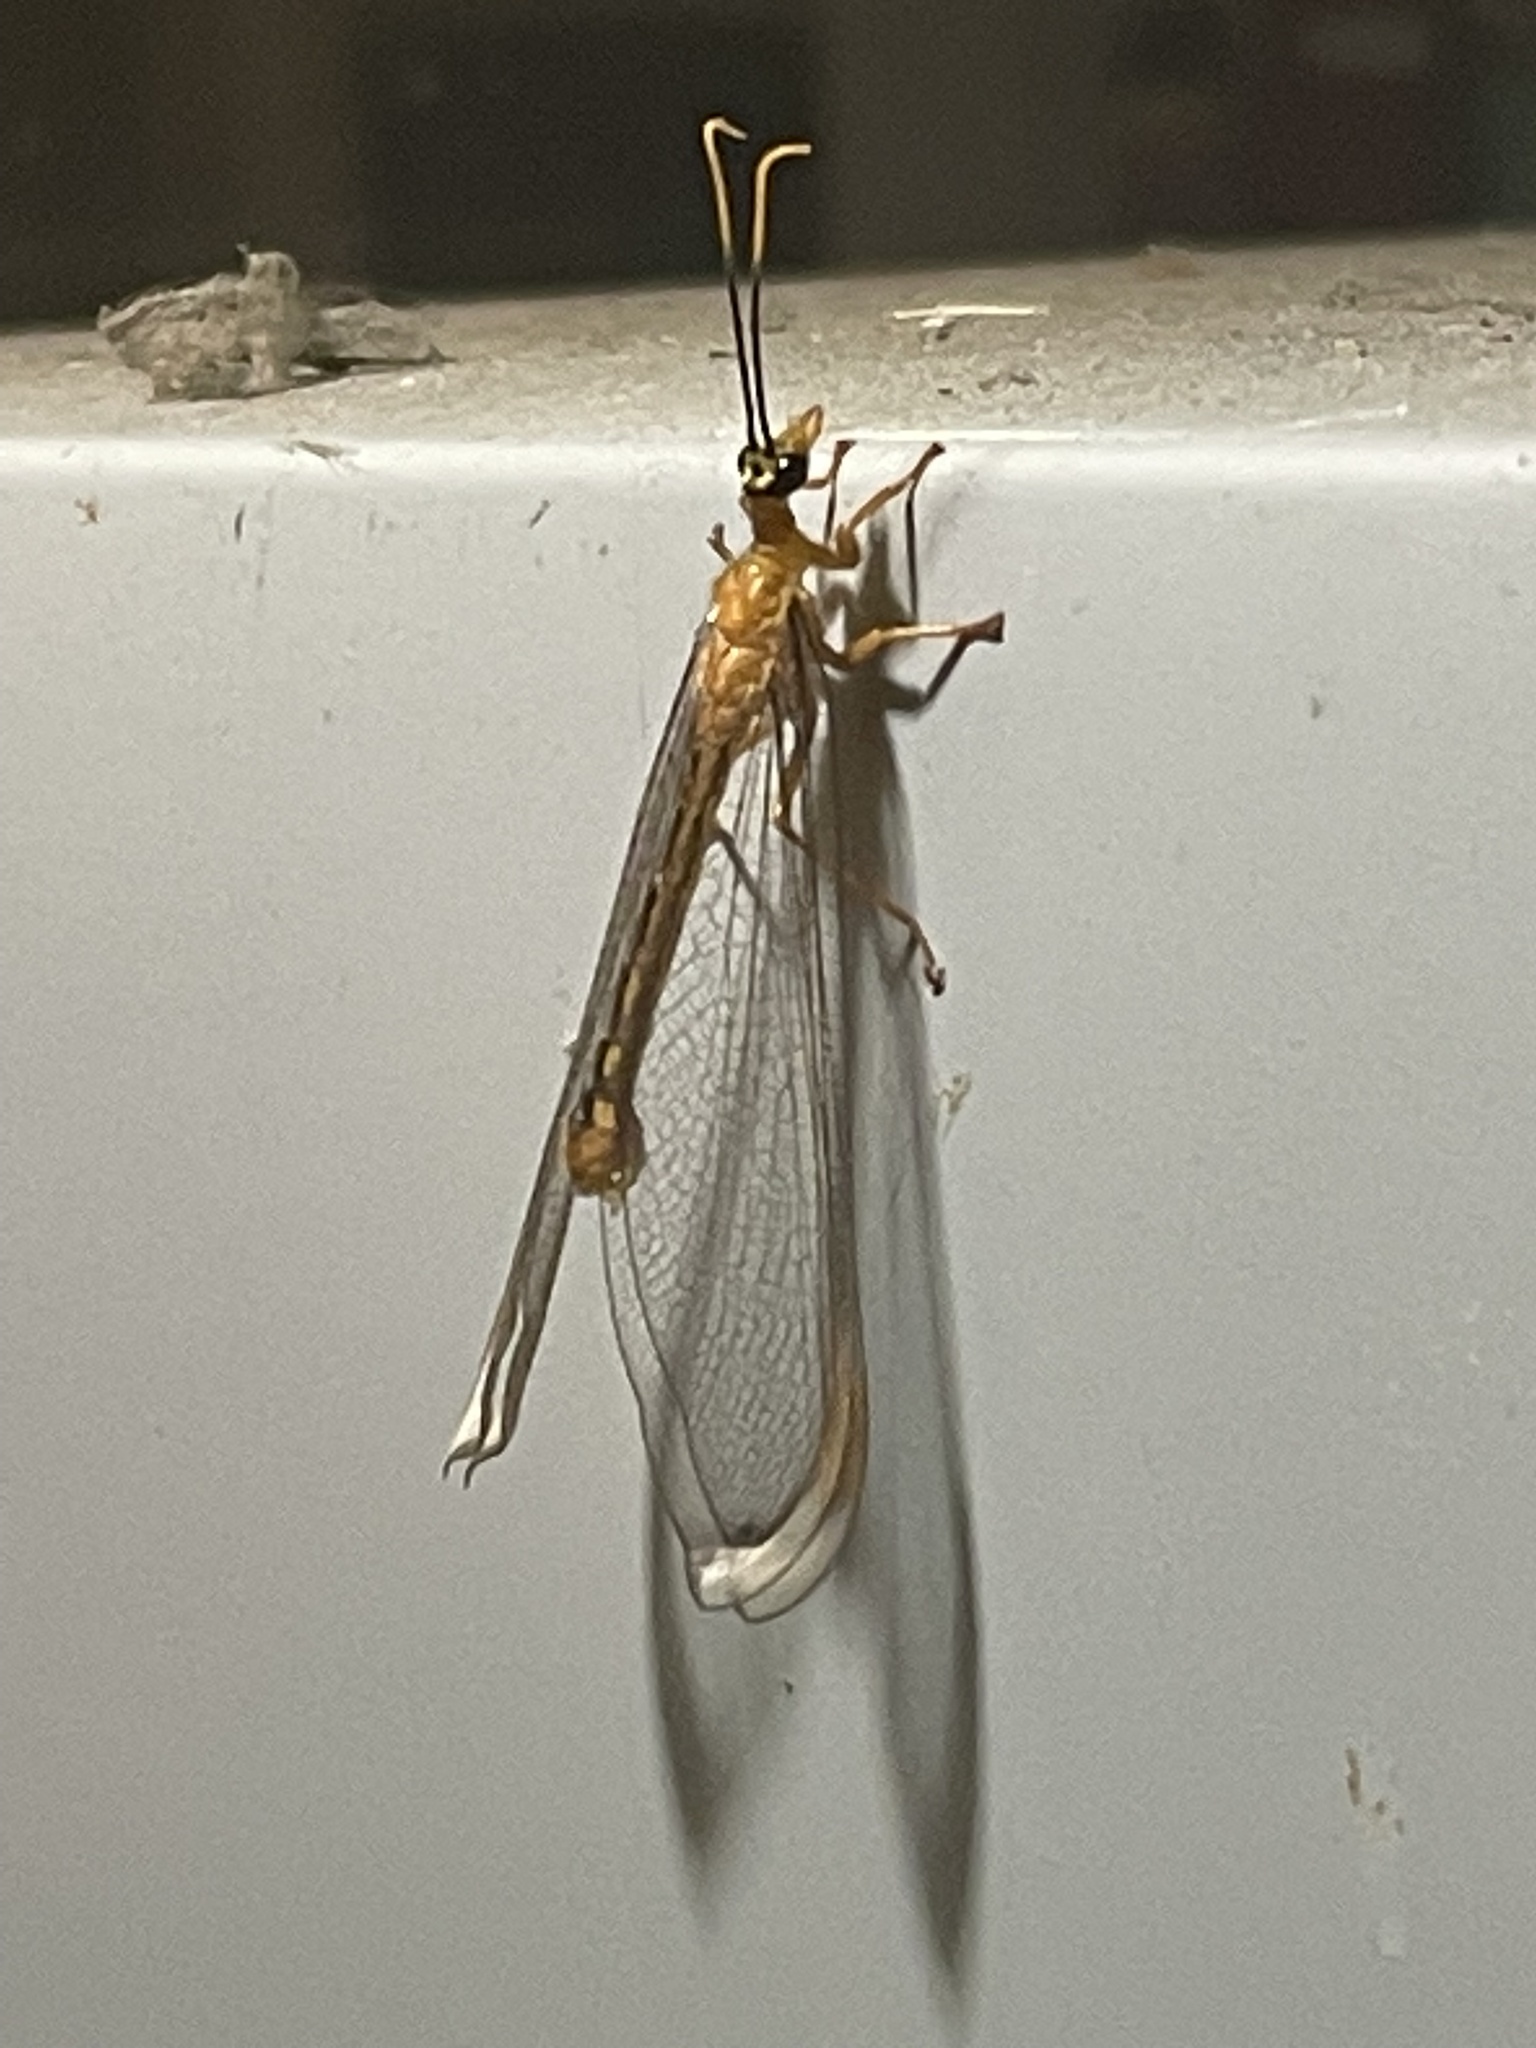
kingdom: Animalia
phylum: Arthropoda
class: Insecta
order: Neuroptera
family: Nymphidae
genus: Nymphes
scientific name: Nymphes myrmeleonoides
